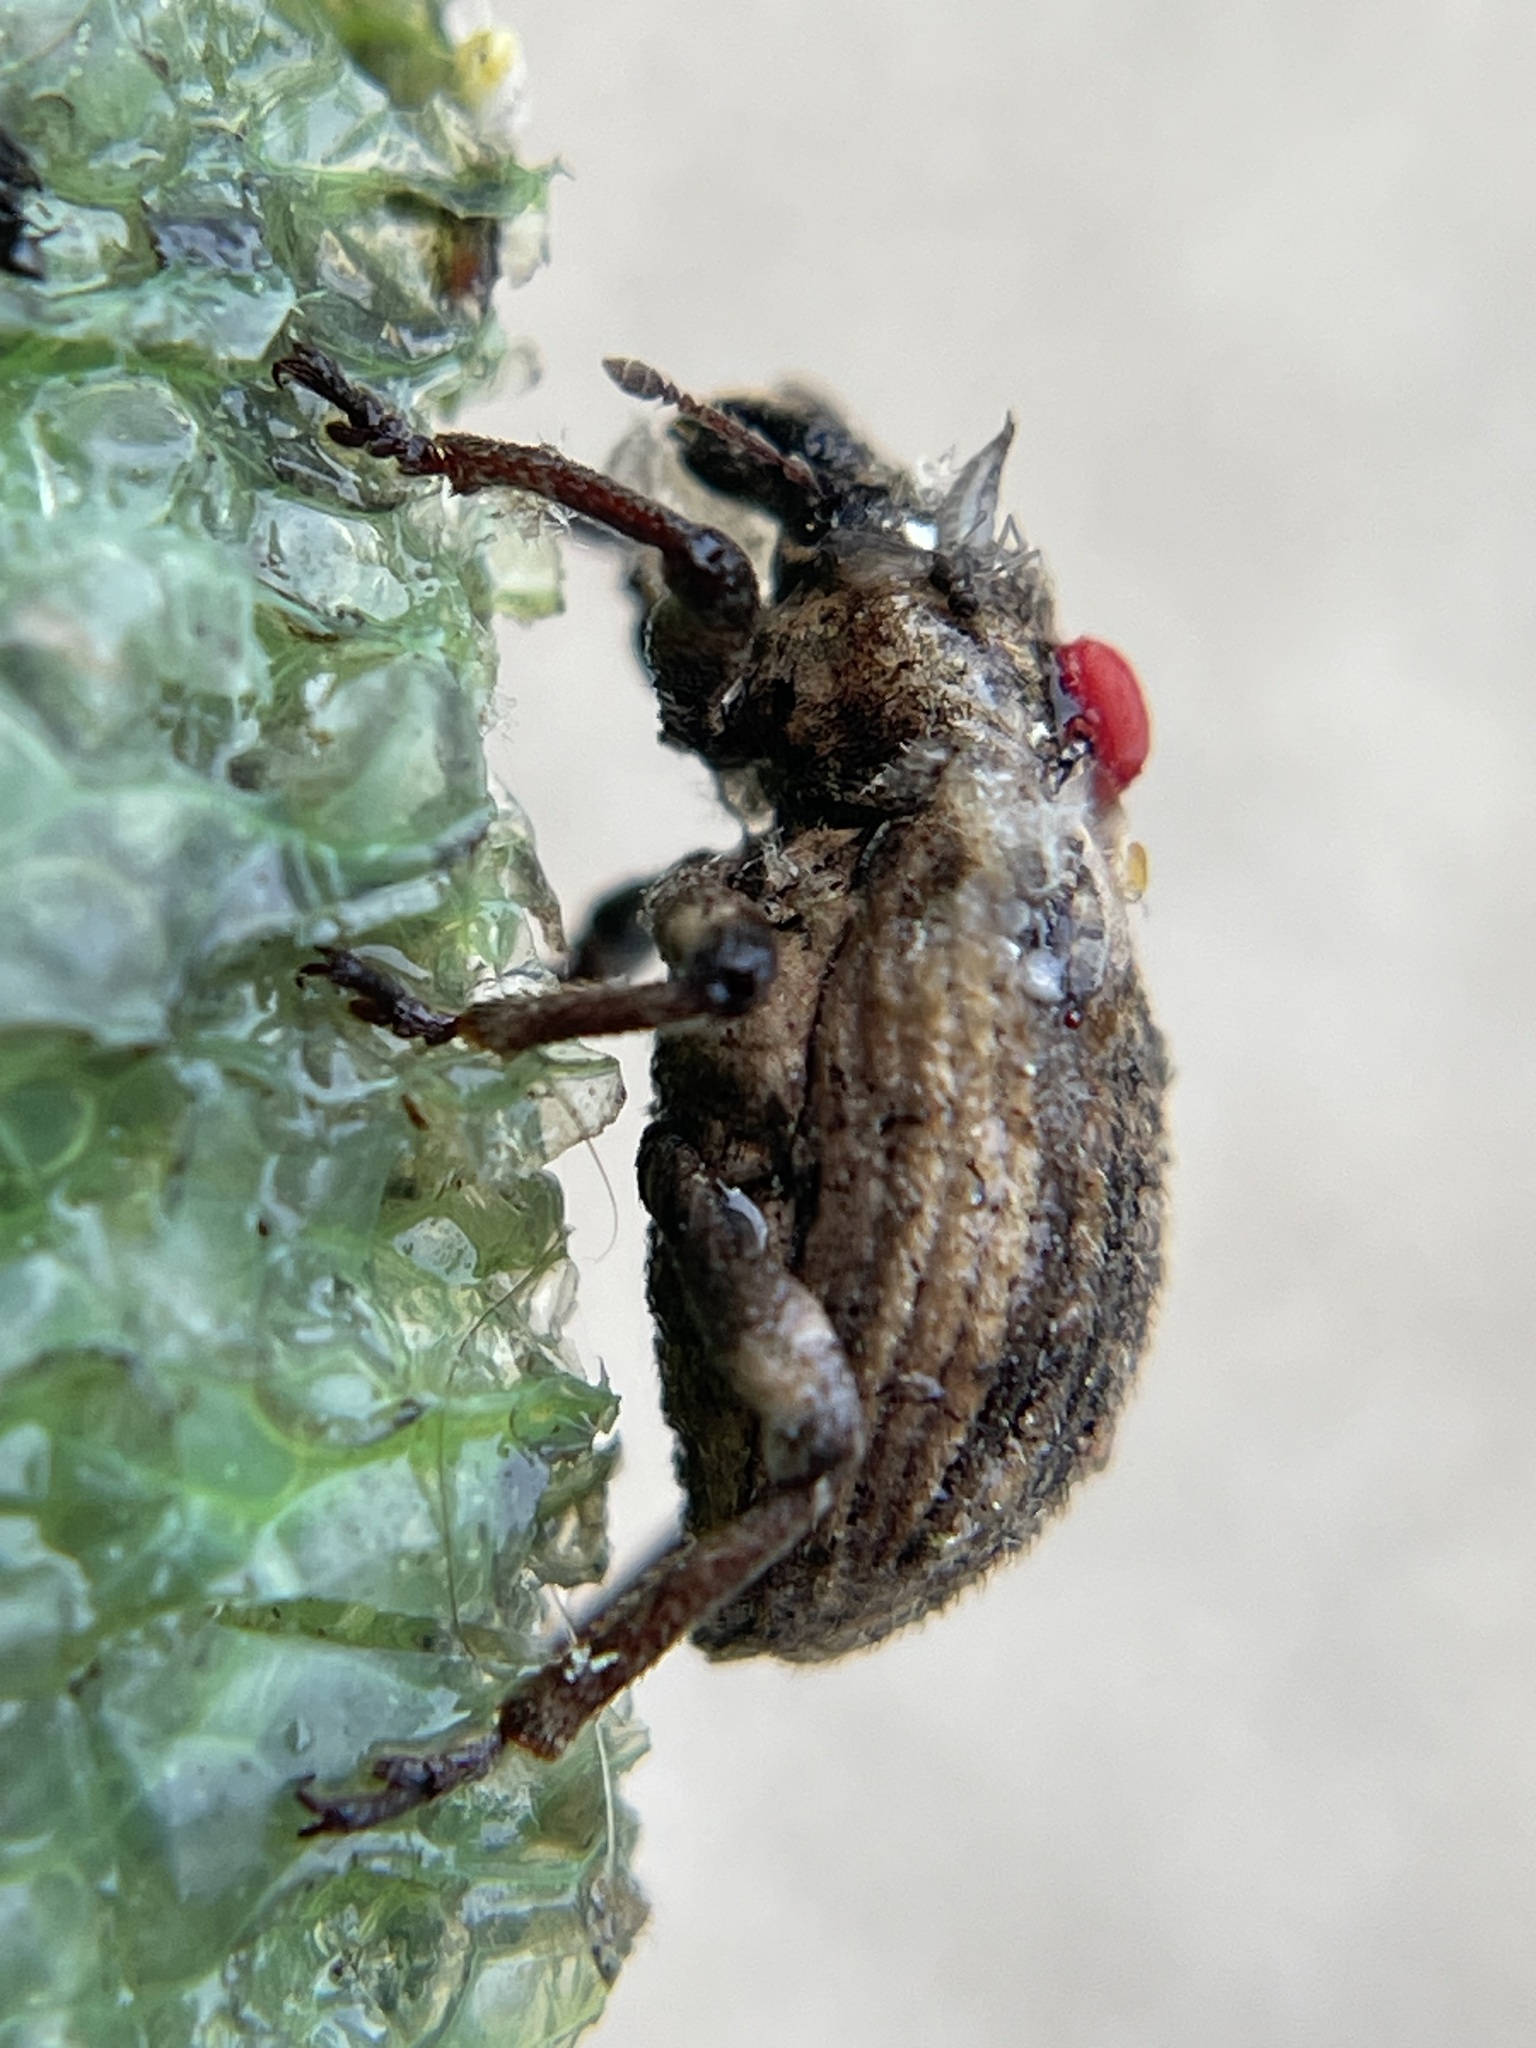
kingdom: Animalia
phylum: Arthropoda
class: Insecta
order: Coleoptera
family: Curculionidae
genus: Brachypera
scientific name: Brachypera zoilus
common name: Clover leaf weevil
